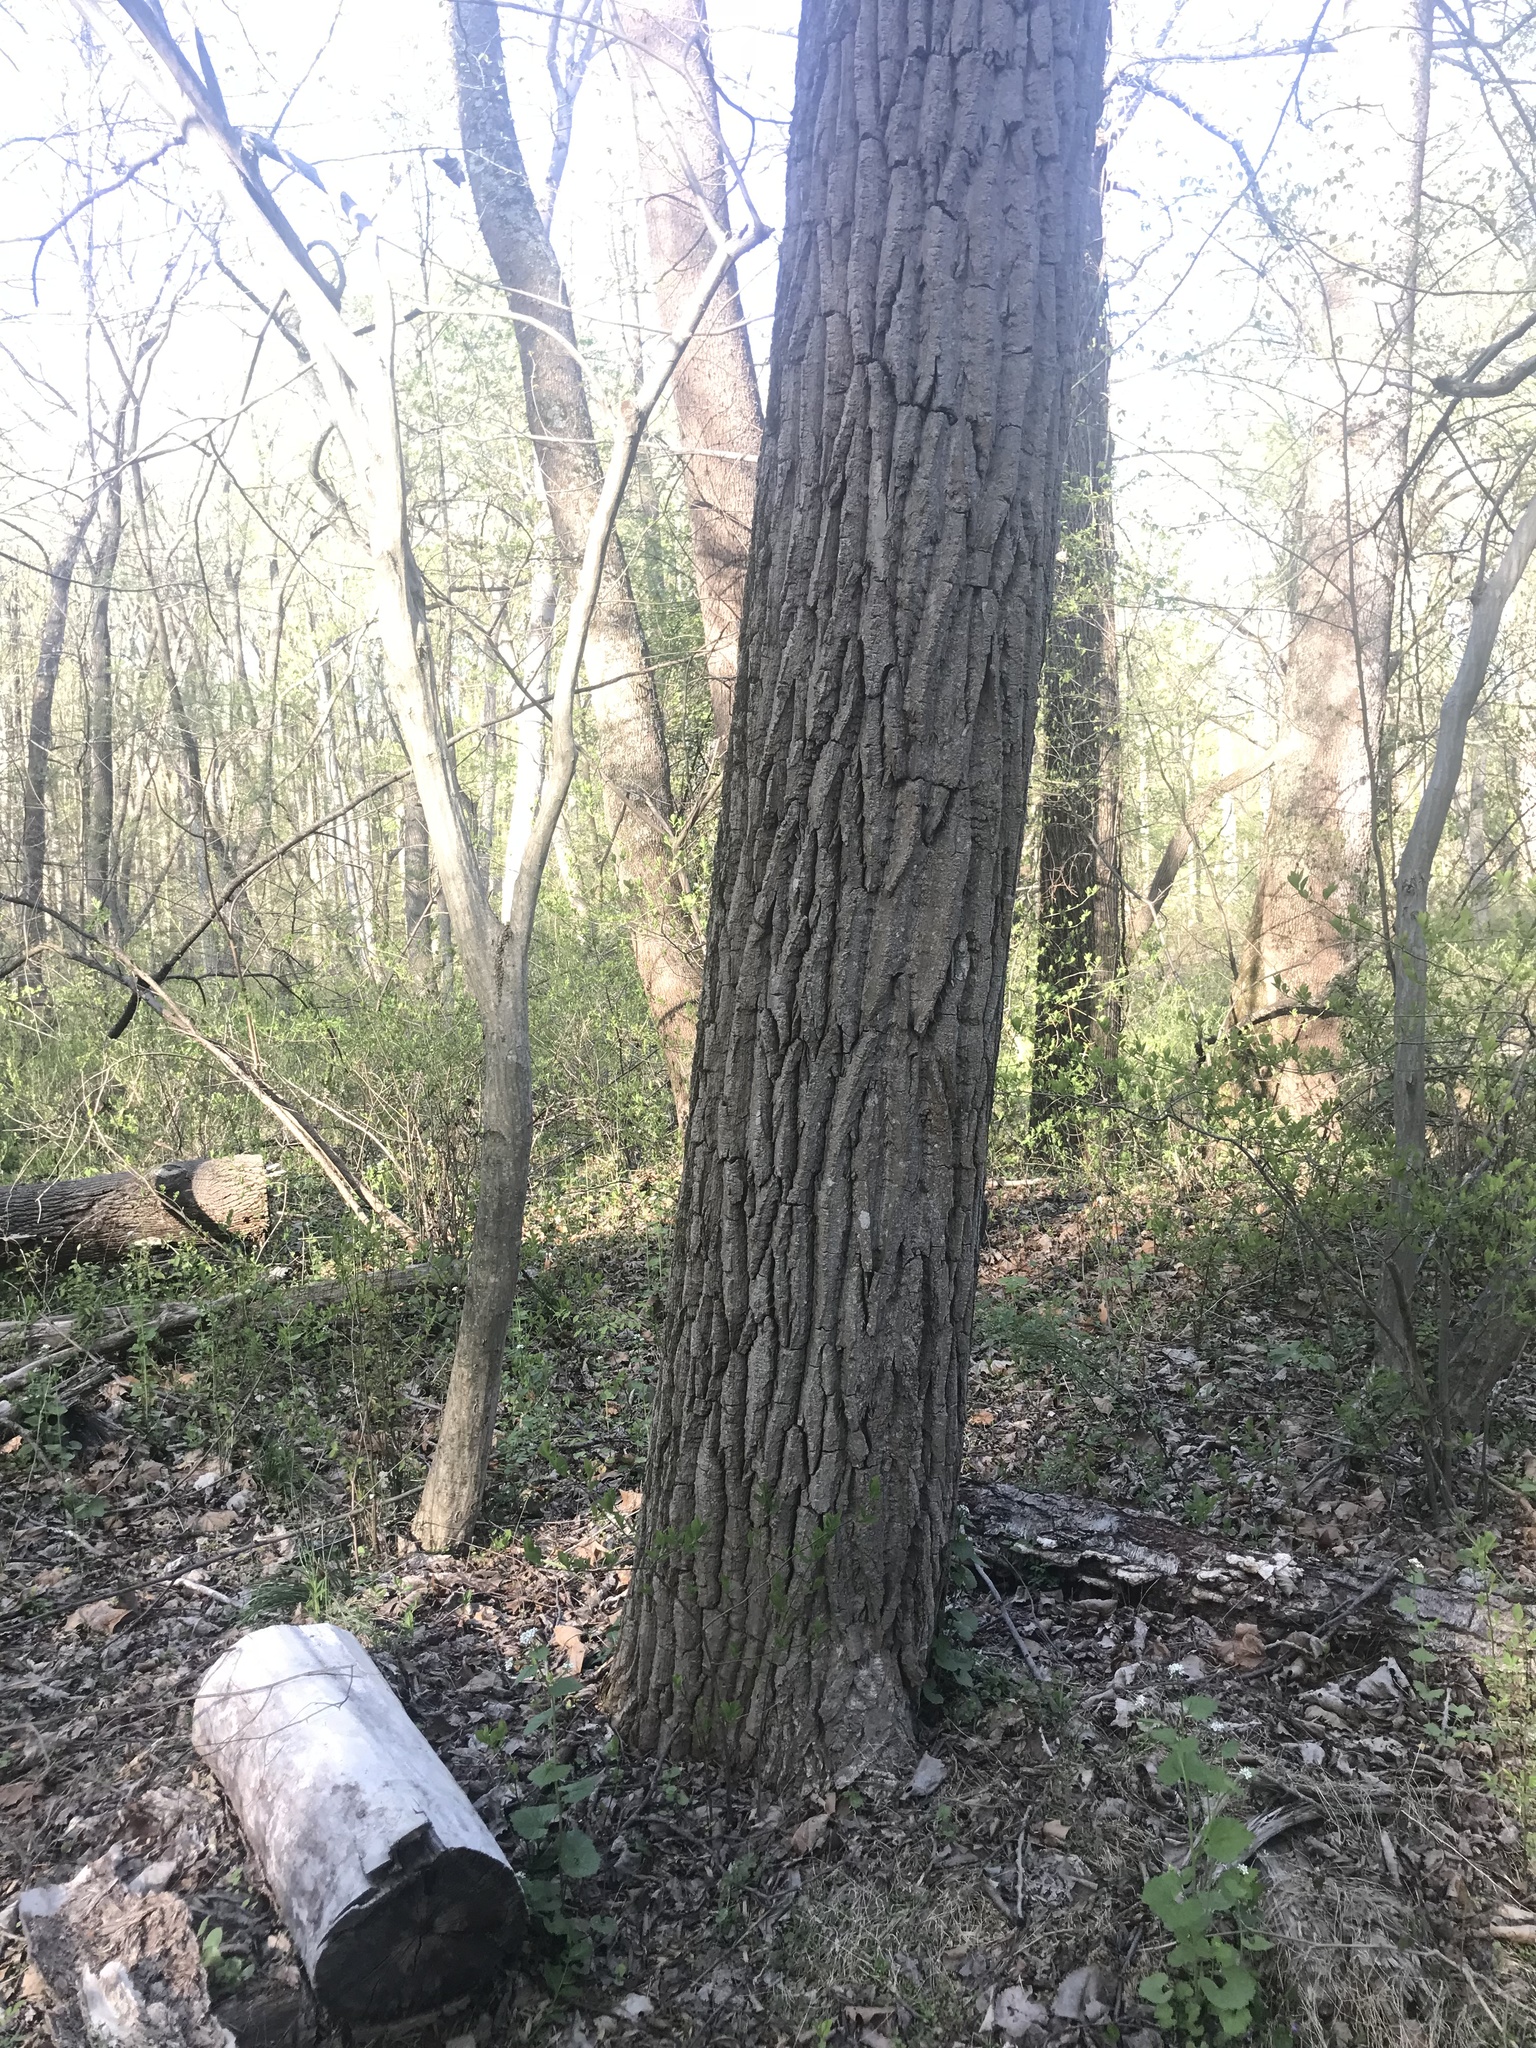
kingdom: Plantae
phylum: Tracheophyta
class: Magnoliopsida
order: Brassicales
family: Brassicaceae
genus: Alliaria
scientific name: Alliaria petiolata
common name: Garlic mustard
